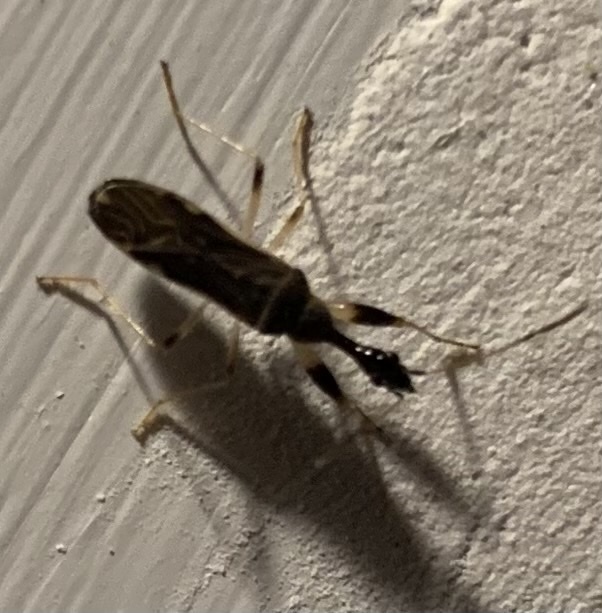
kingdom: Animalia
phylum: Arthropoda
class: Insecta
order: Hemiptera
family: Rhyparochromidae
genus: Myodocha
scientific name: Myodocha serripes
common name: Long-necked seed bug
